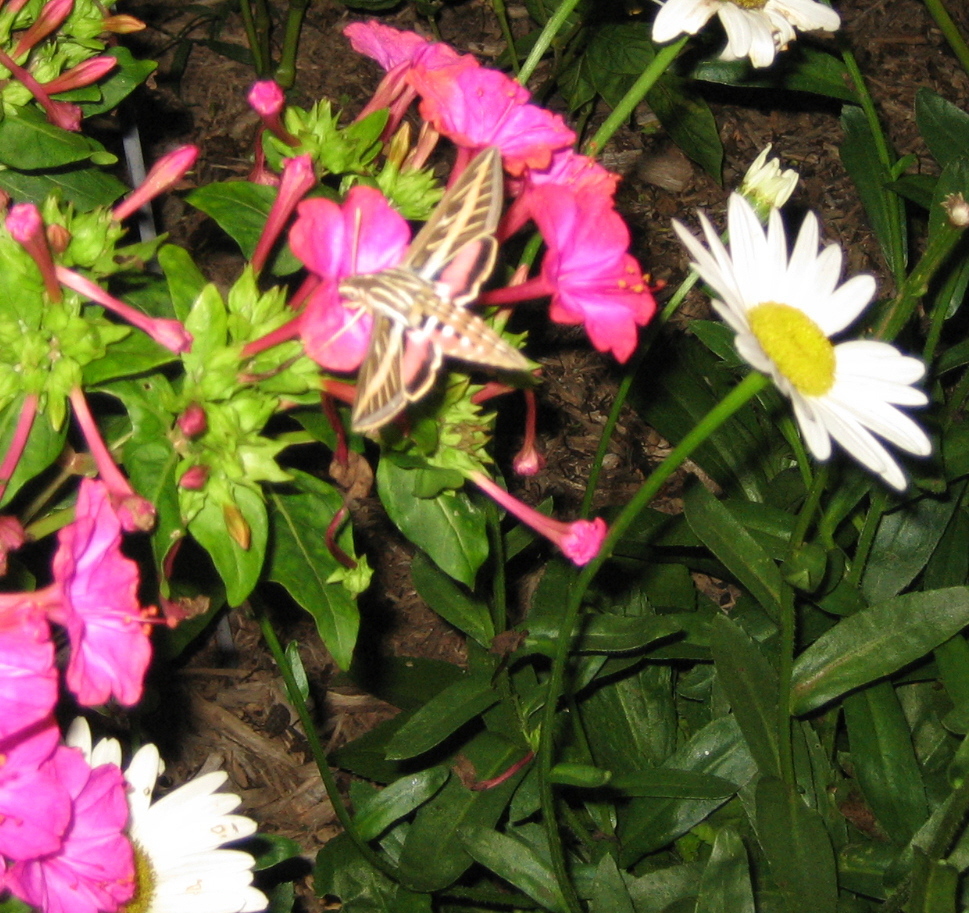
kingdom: Animalia
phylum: Arthropoda
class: Insecta
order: Lepidoptera
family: Sphingidae
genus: Hyles
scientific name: Hyles lineata
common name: White-lined sphinx
